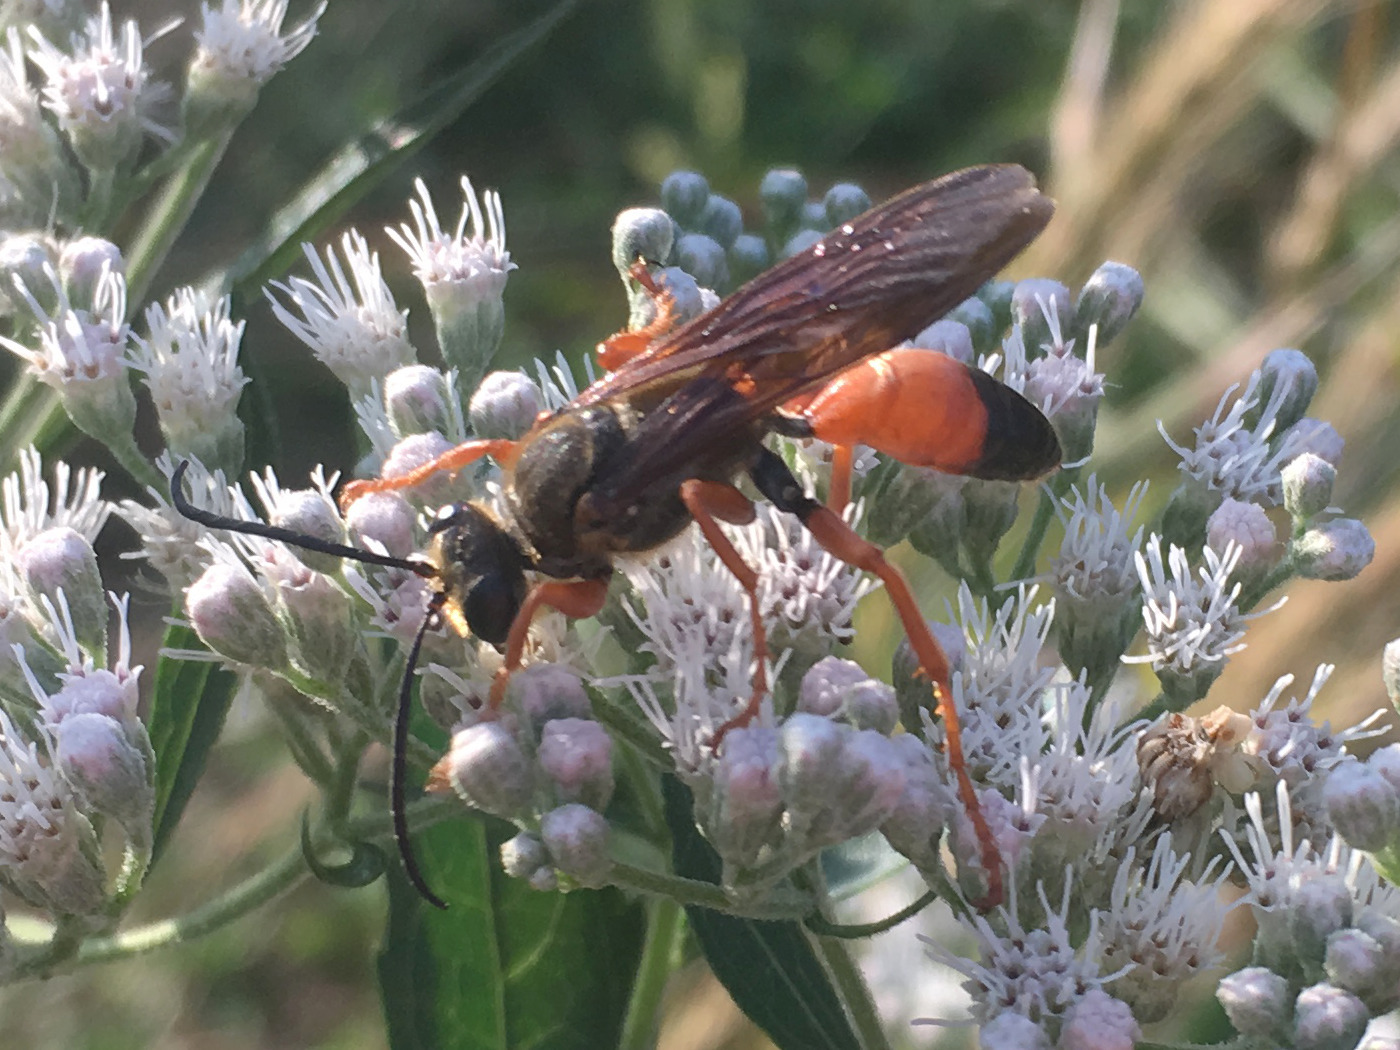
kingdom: Animalia
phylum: Arthropoda
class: Insecta
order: Hymenoptera
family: Sphecidae
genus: Sphex
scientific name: Sphex ichneumoneus
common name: Great golden digger wasp
